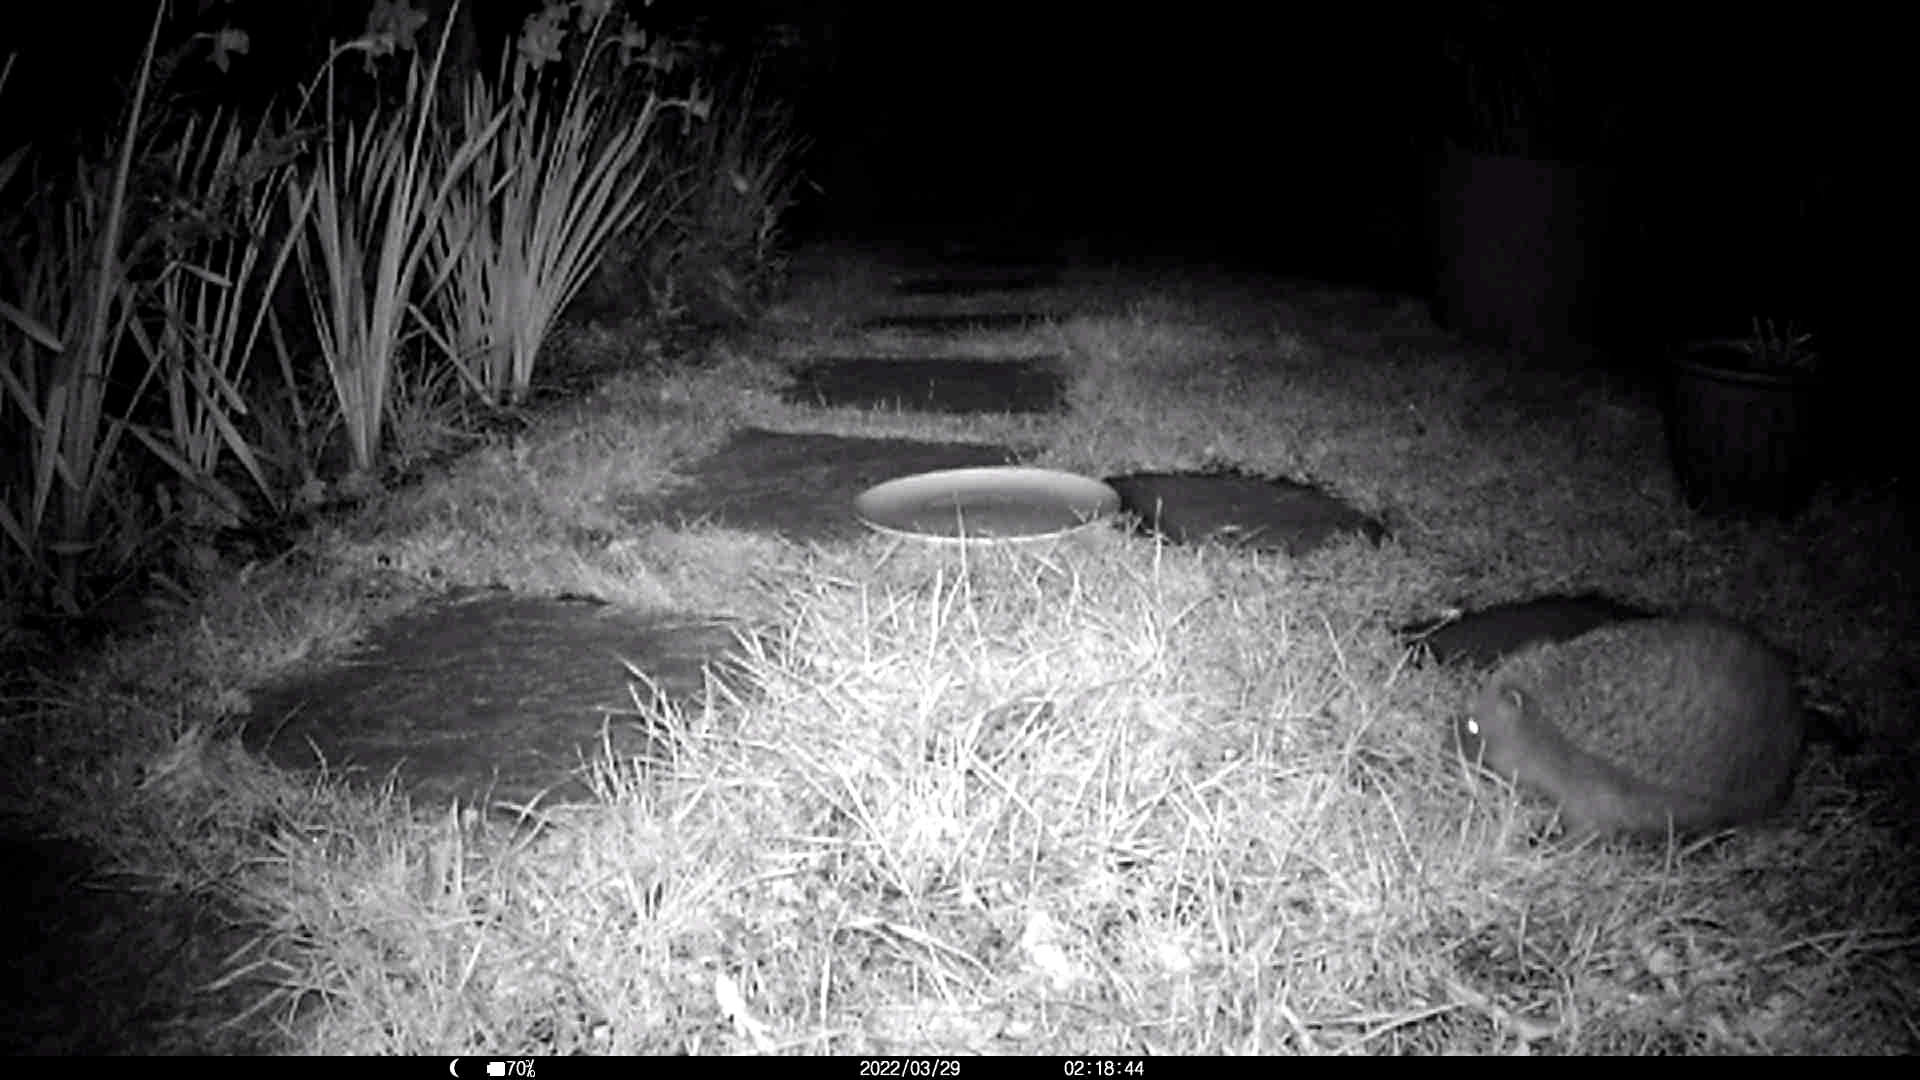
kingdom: Animalia
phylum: Chordata
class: Mammalia
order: Erinaceomorpha
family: Erinaceidae
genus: Erinaceus
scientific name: Erinaceus europaeus
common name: West european hedgehog
